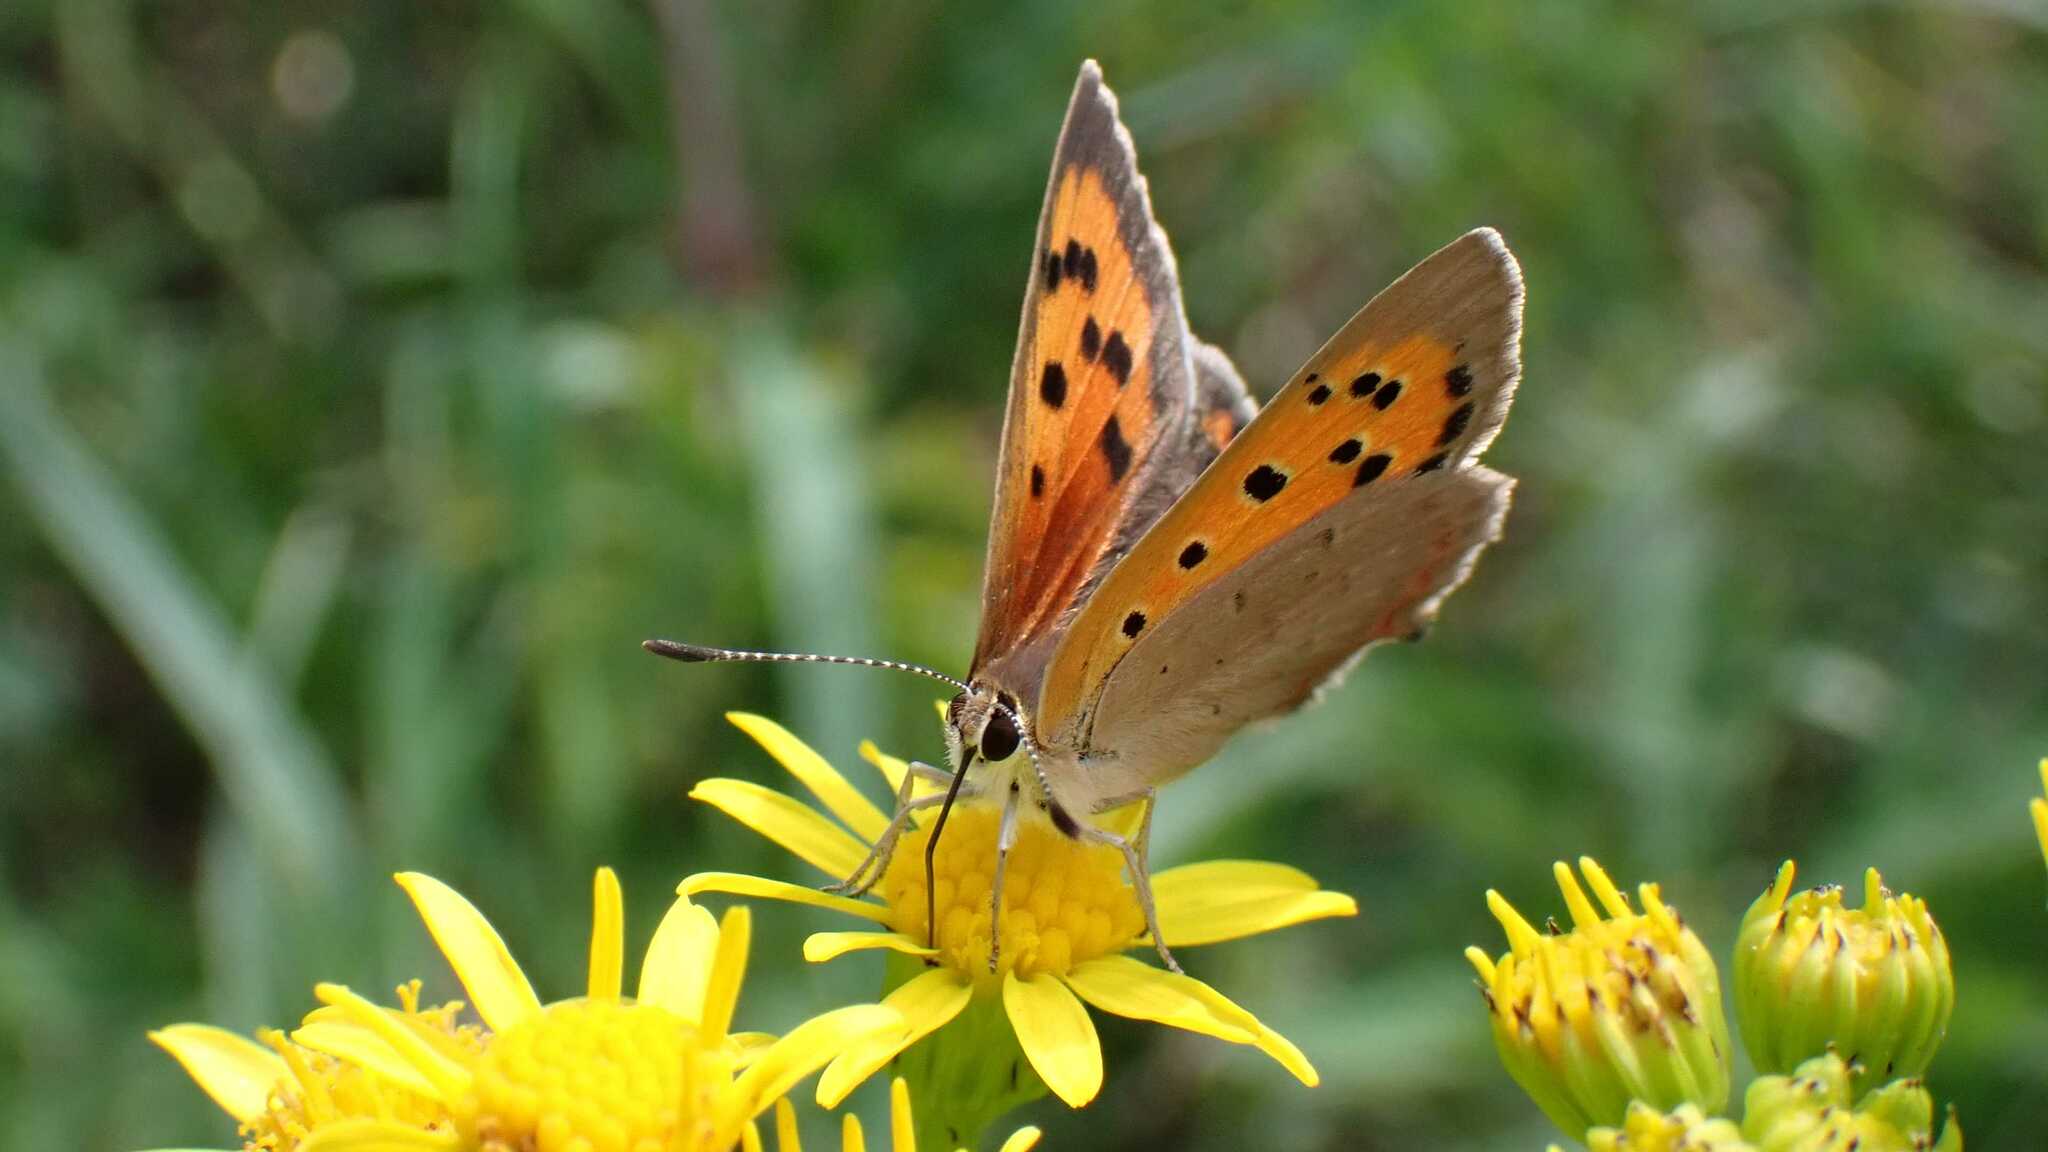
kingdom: Animalia
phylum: Arthropoda
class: Insecta
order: Lepidoptera
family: Lycaenidae
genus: Lycaena
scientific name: Lycaena phlaeas
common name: Small copper
